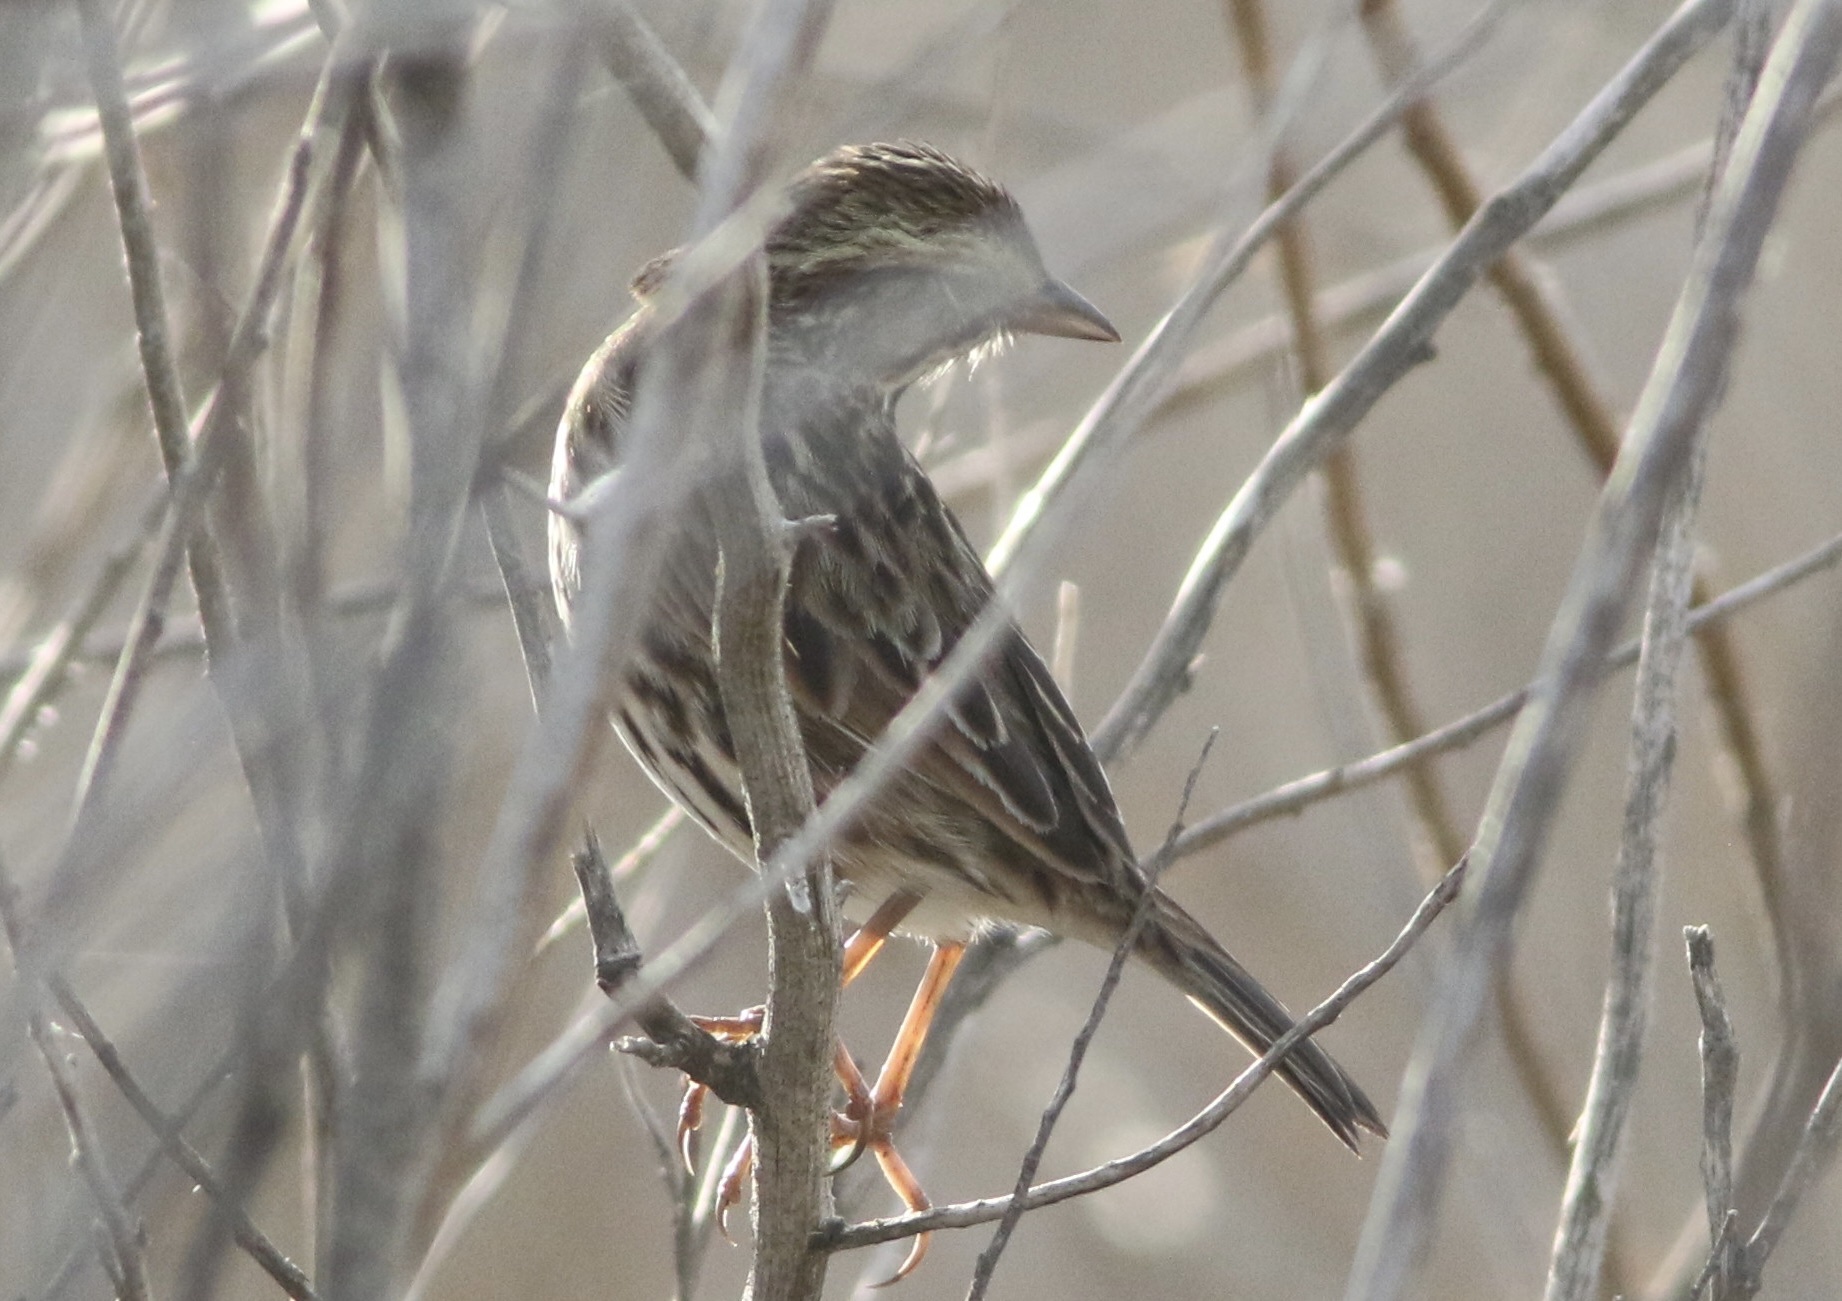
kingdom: Animalia
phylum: Chordata
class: Aves
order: Passeriformes
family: Passerellidae
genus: Passerculus
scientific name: Passerculus sandwichensis
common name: Savannah sparrow
